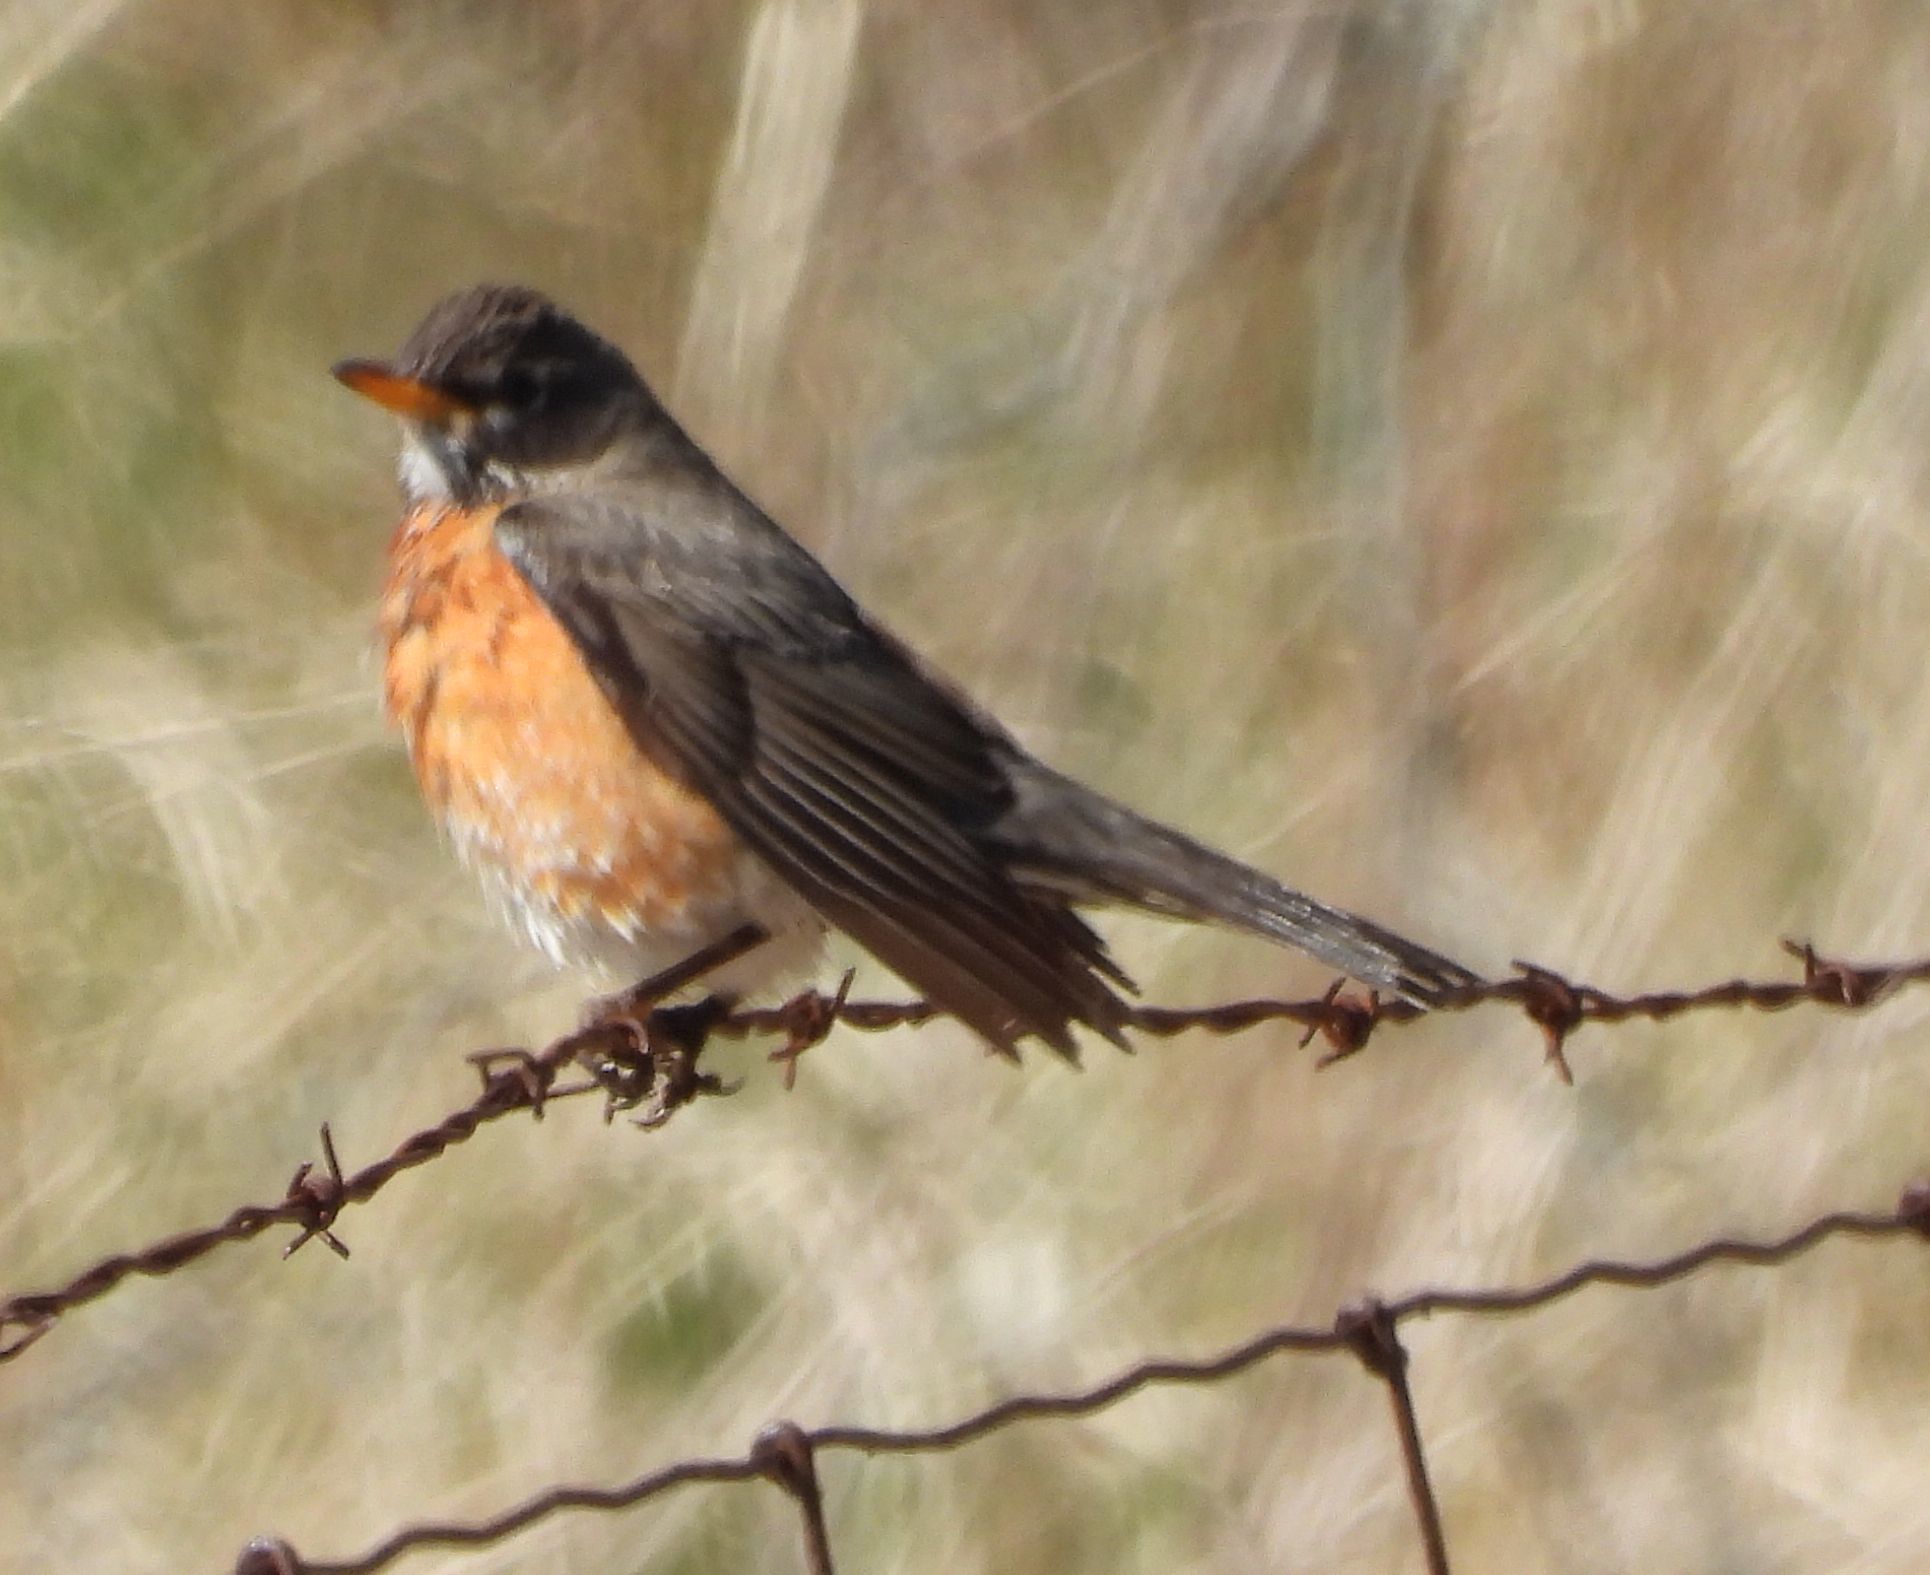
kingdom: Animalia
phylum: Chordata
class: Aves
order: Passeriformes
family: Turdidae
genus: Turdus
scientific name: Turdus migratorius
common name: American robin
